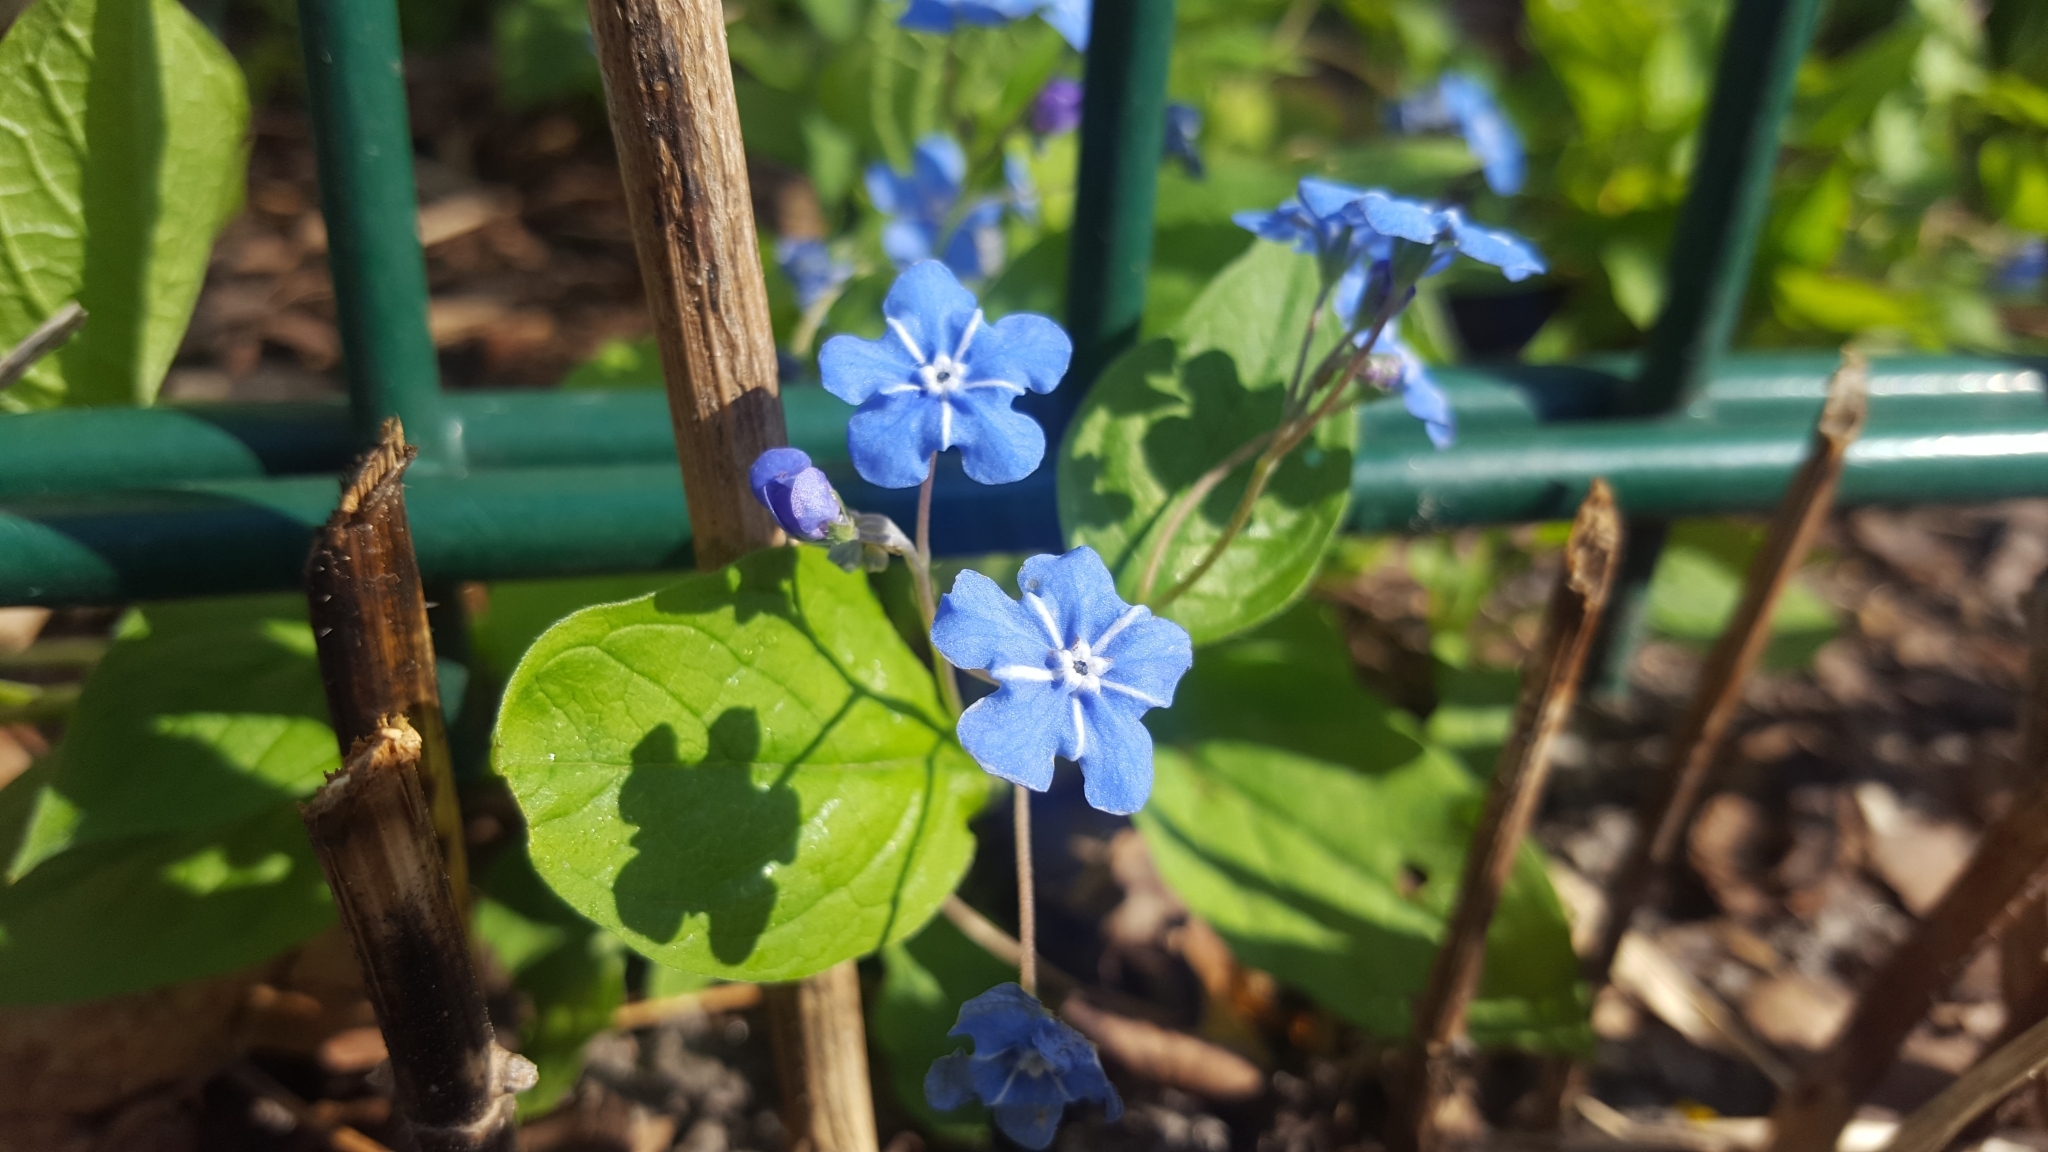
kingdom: Plantae
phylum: Tracheophyta
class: Magnoliopsida
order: Boraginales
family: Boraginaceae
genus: Omphalodes
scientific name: Omphalodes verna
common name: Blue-eyed-mary
